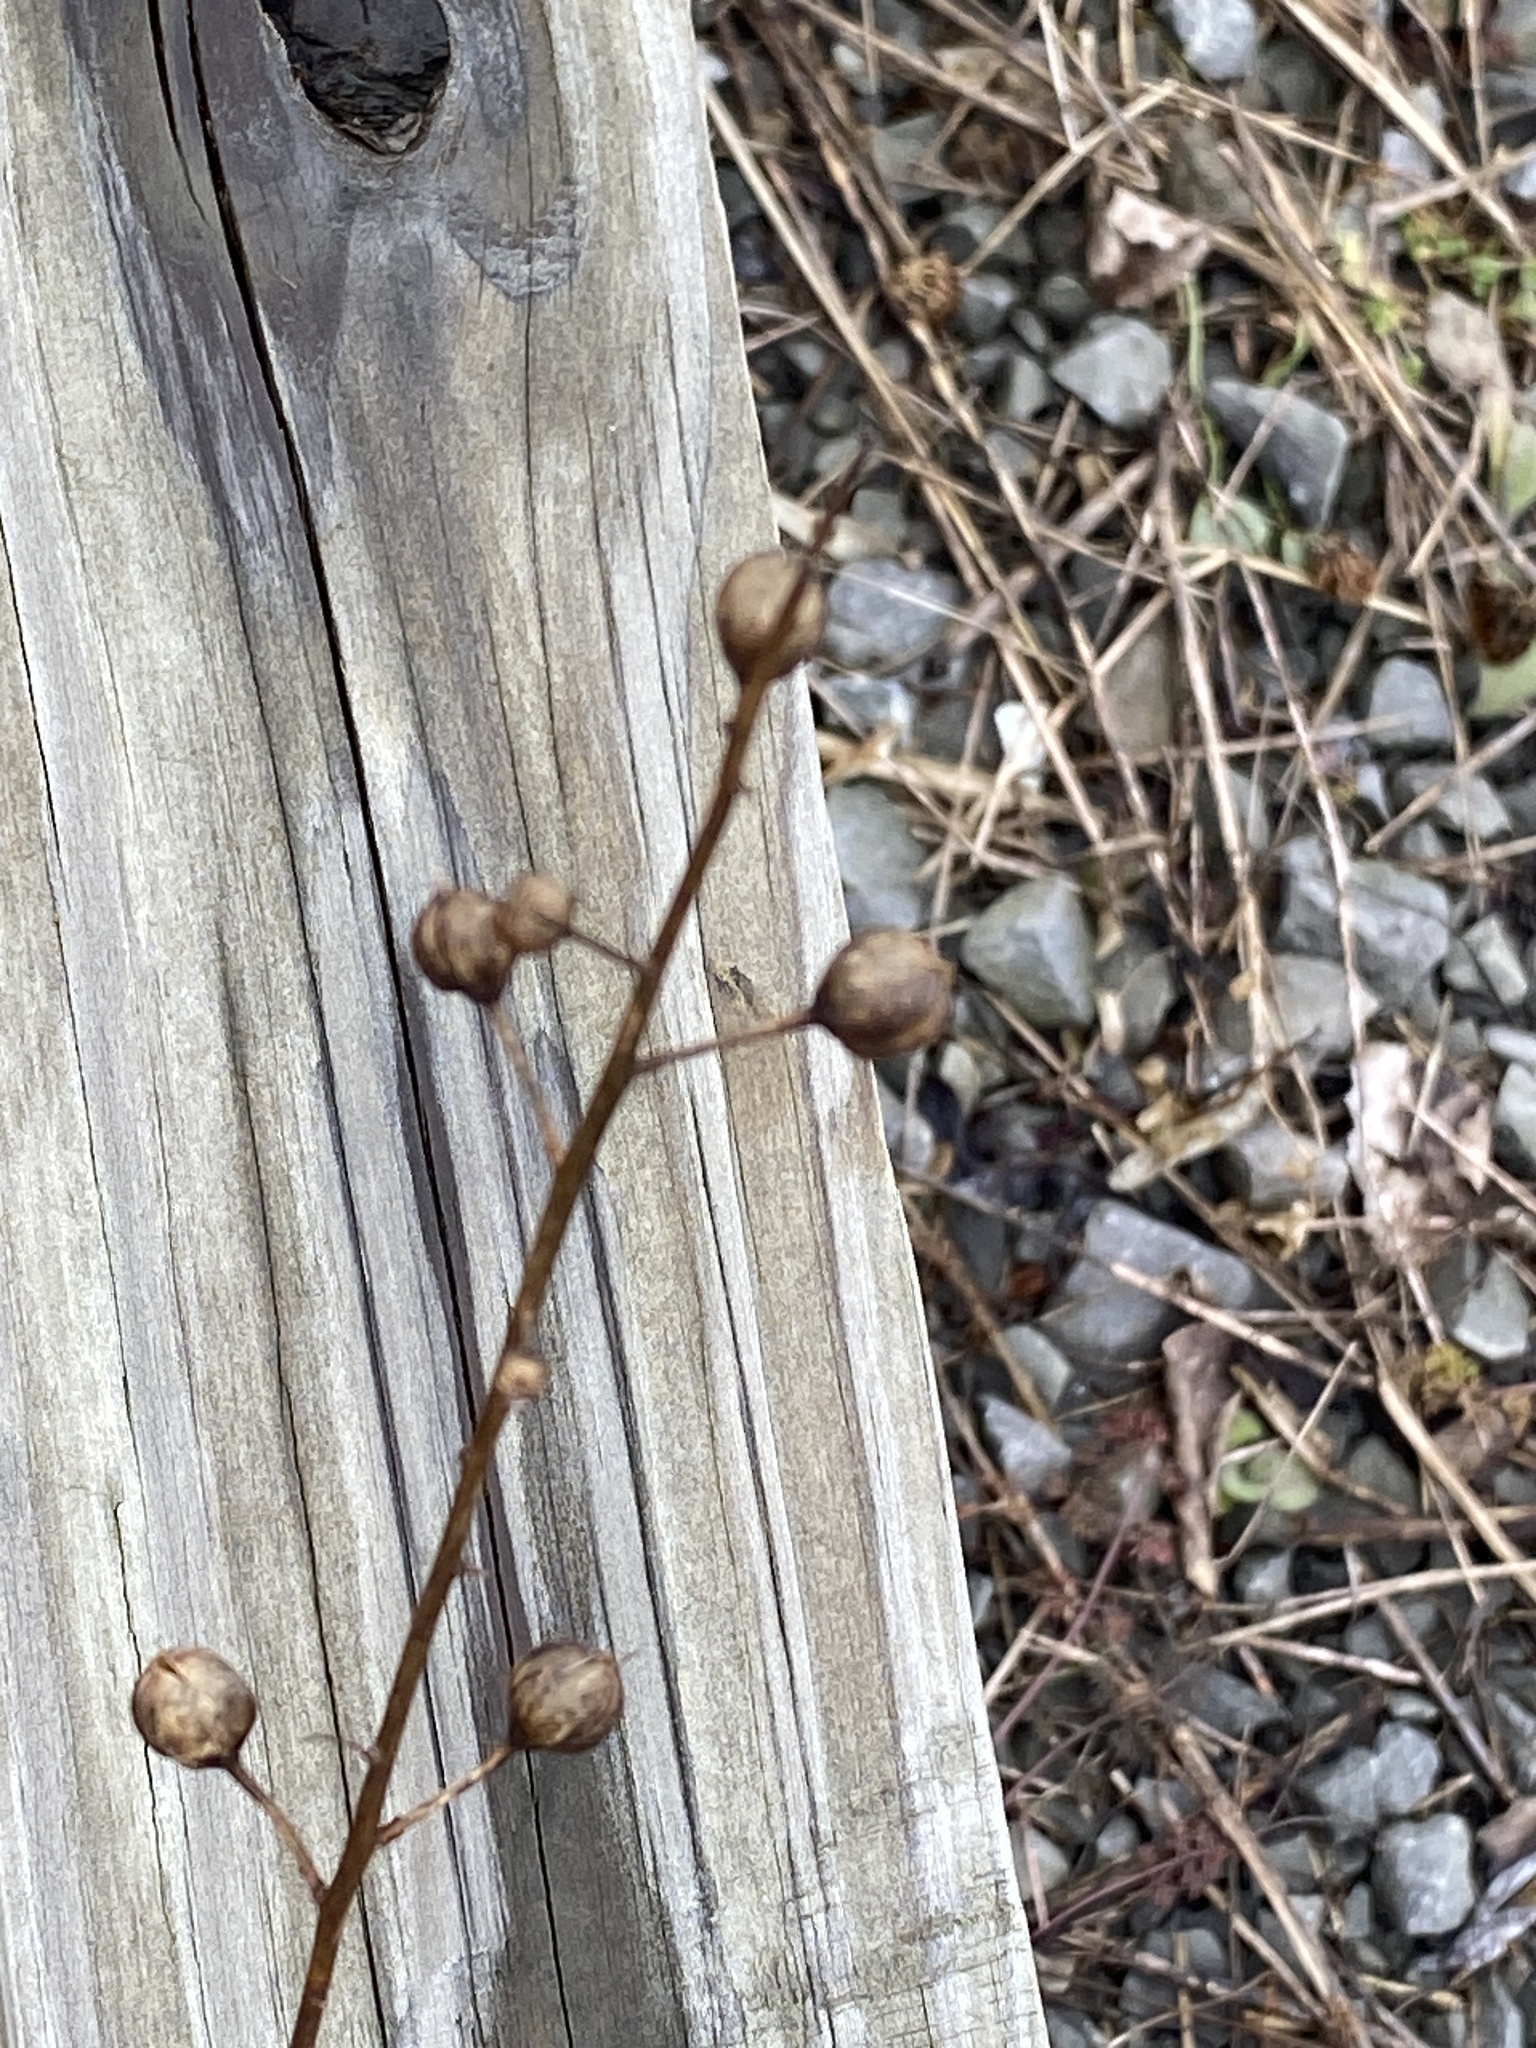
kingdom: Plantae
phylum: Tracheophyta
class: Magnoliopsida
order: Lamiales
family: Scrophulariaceae
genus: Verbascum
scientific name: Verbascum blattaria
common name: Moth mullein
